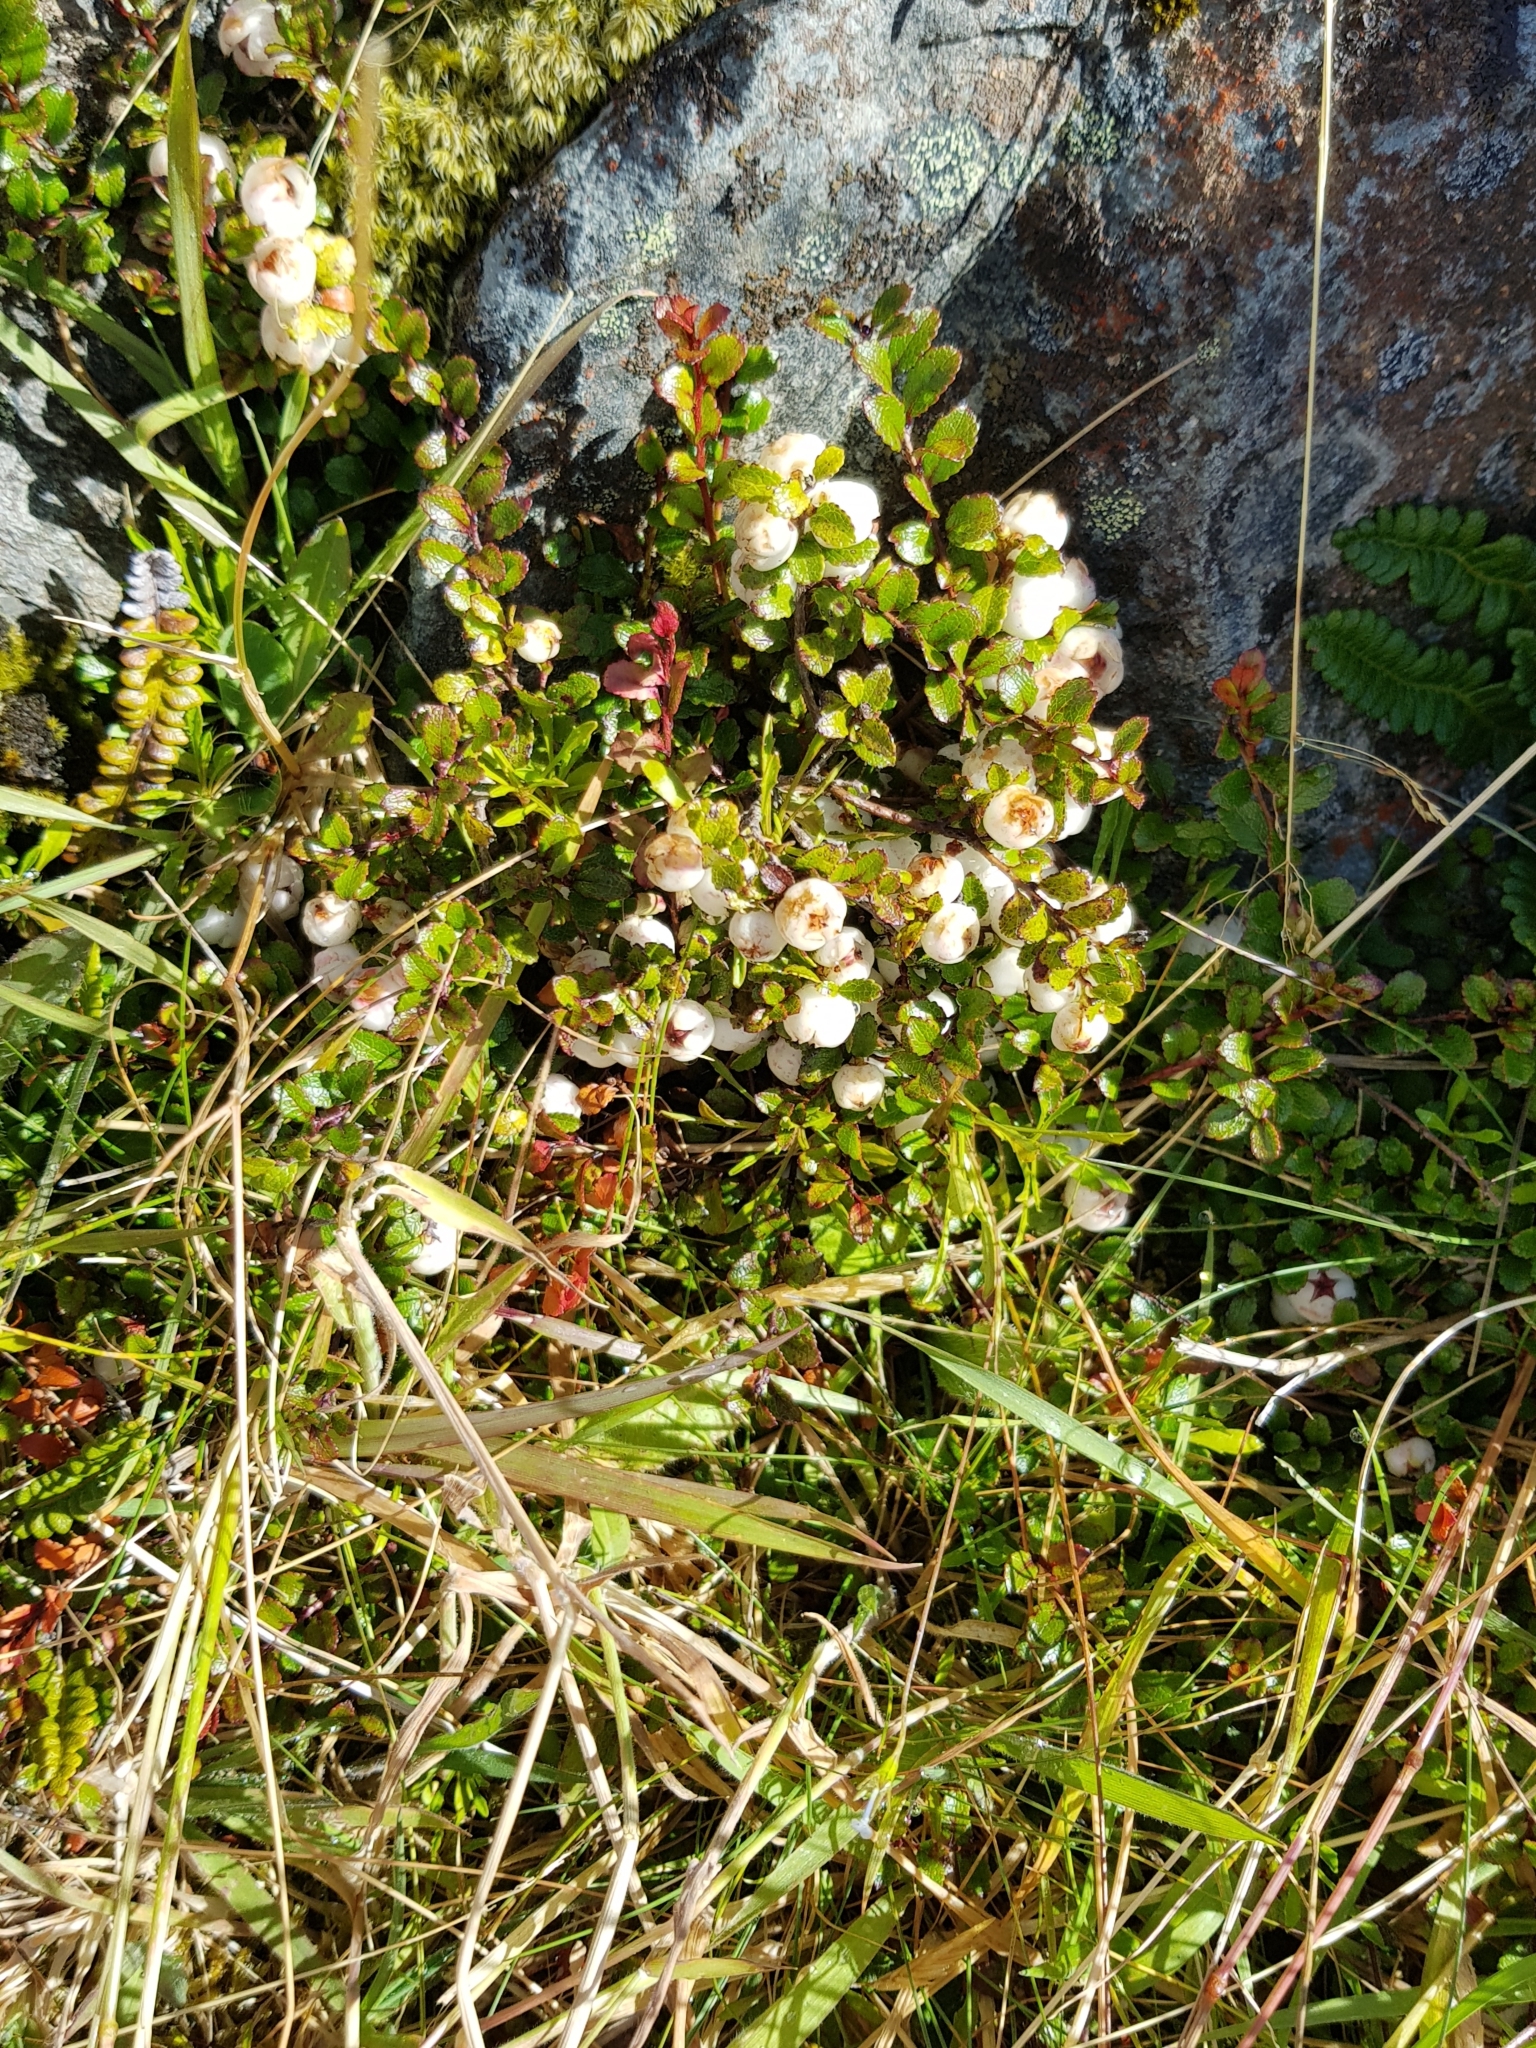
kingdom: Plantae
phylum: Tracheophyta
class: Magnoliopsida
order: Ericales
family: Ericaceae
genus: Gaultheria
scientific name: Gaultheria depressa
